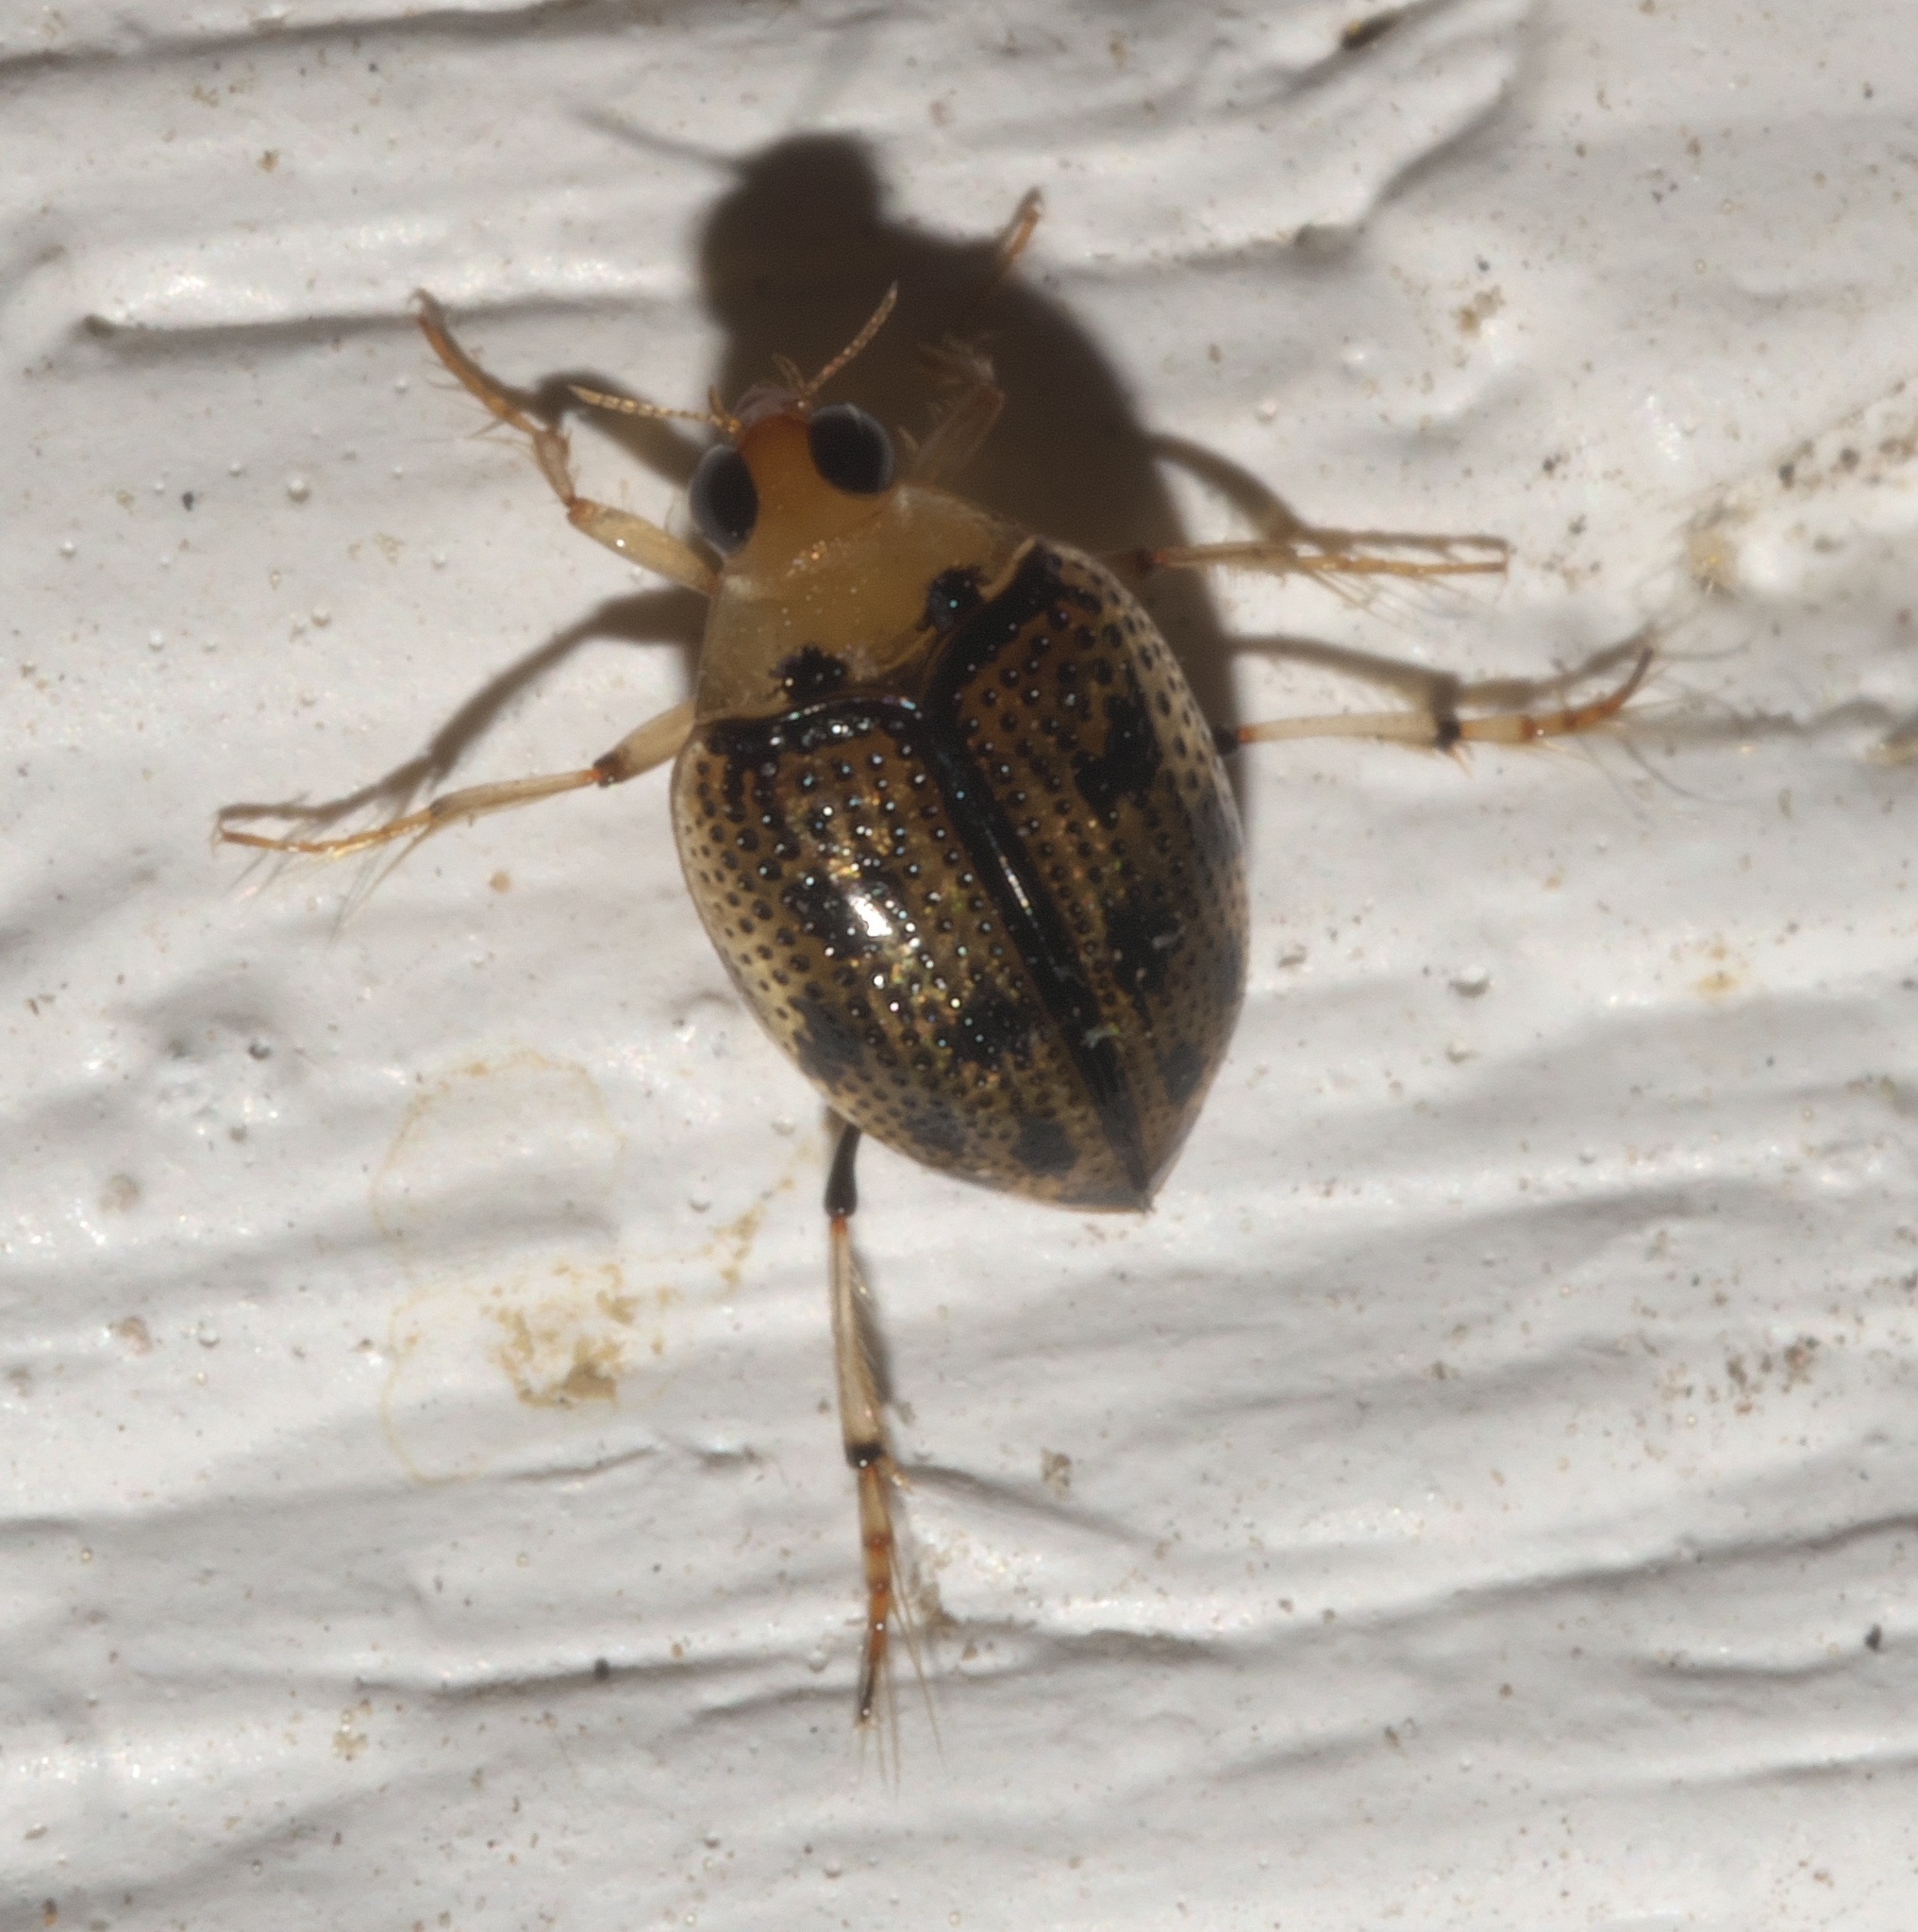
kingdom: Animalia
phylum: Arthropoda
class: Insecta
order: Coleoptera
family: Haliplidae
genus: Peltodytes
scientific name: Peltodytes sexmaculatus
